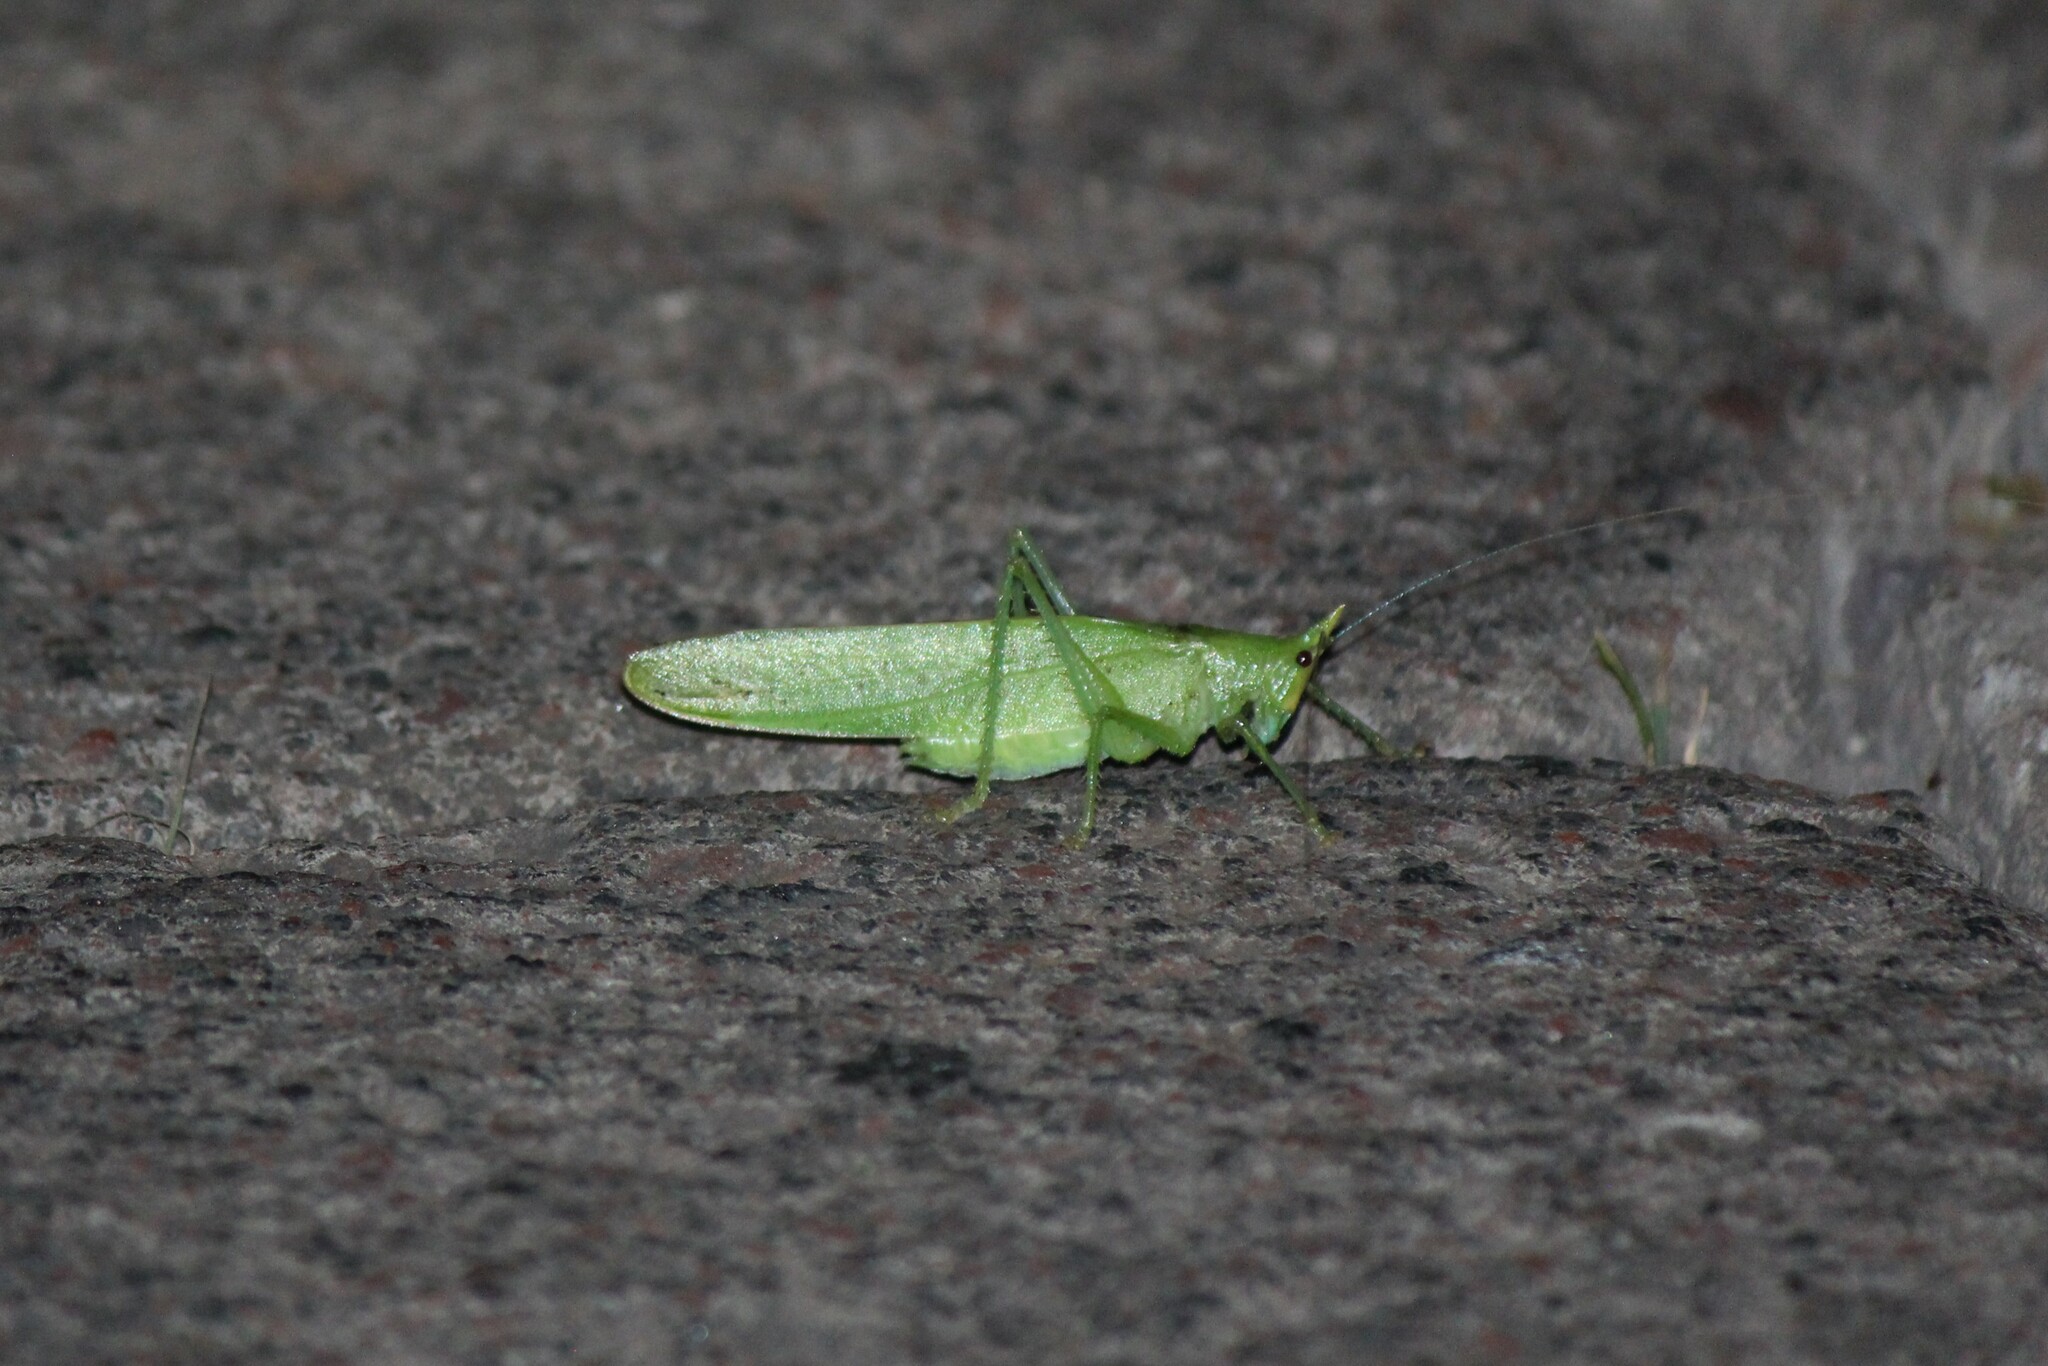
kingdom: Animalia
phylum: Arthropoda
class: Insecta
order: Orthoptera
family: Tettigoniidae
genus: Copiphora
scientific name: Copiphora brevicauda
